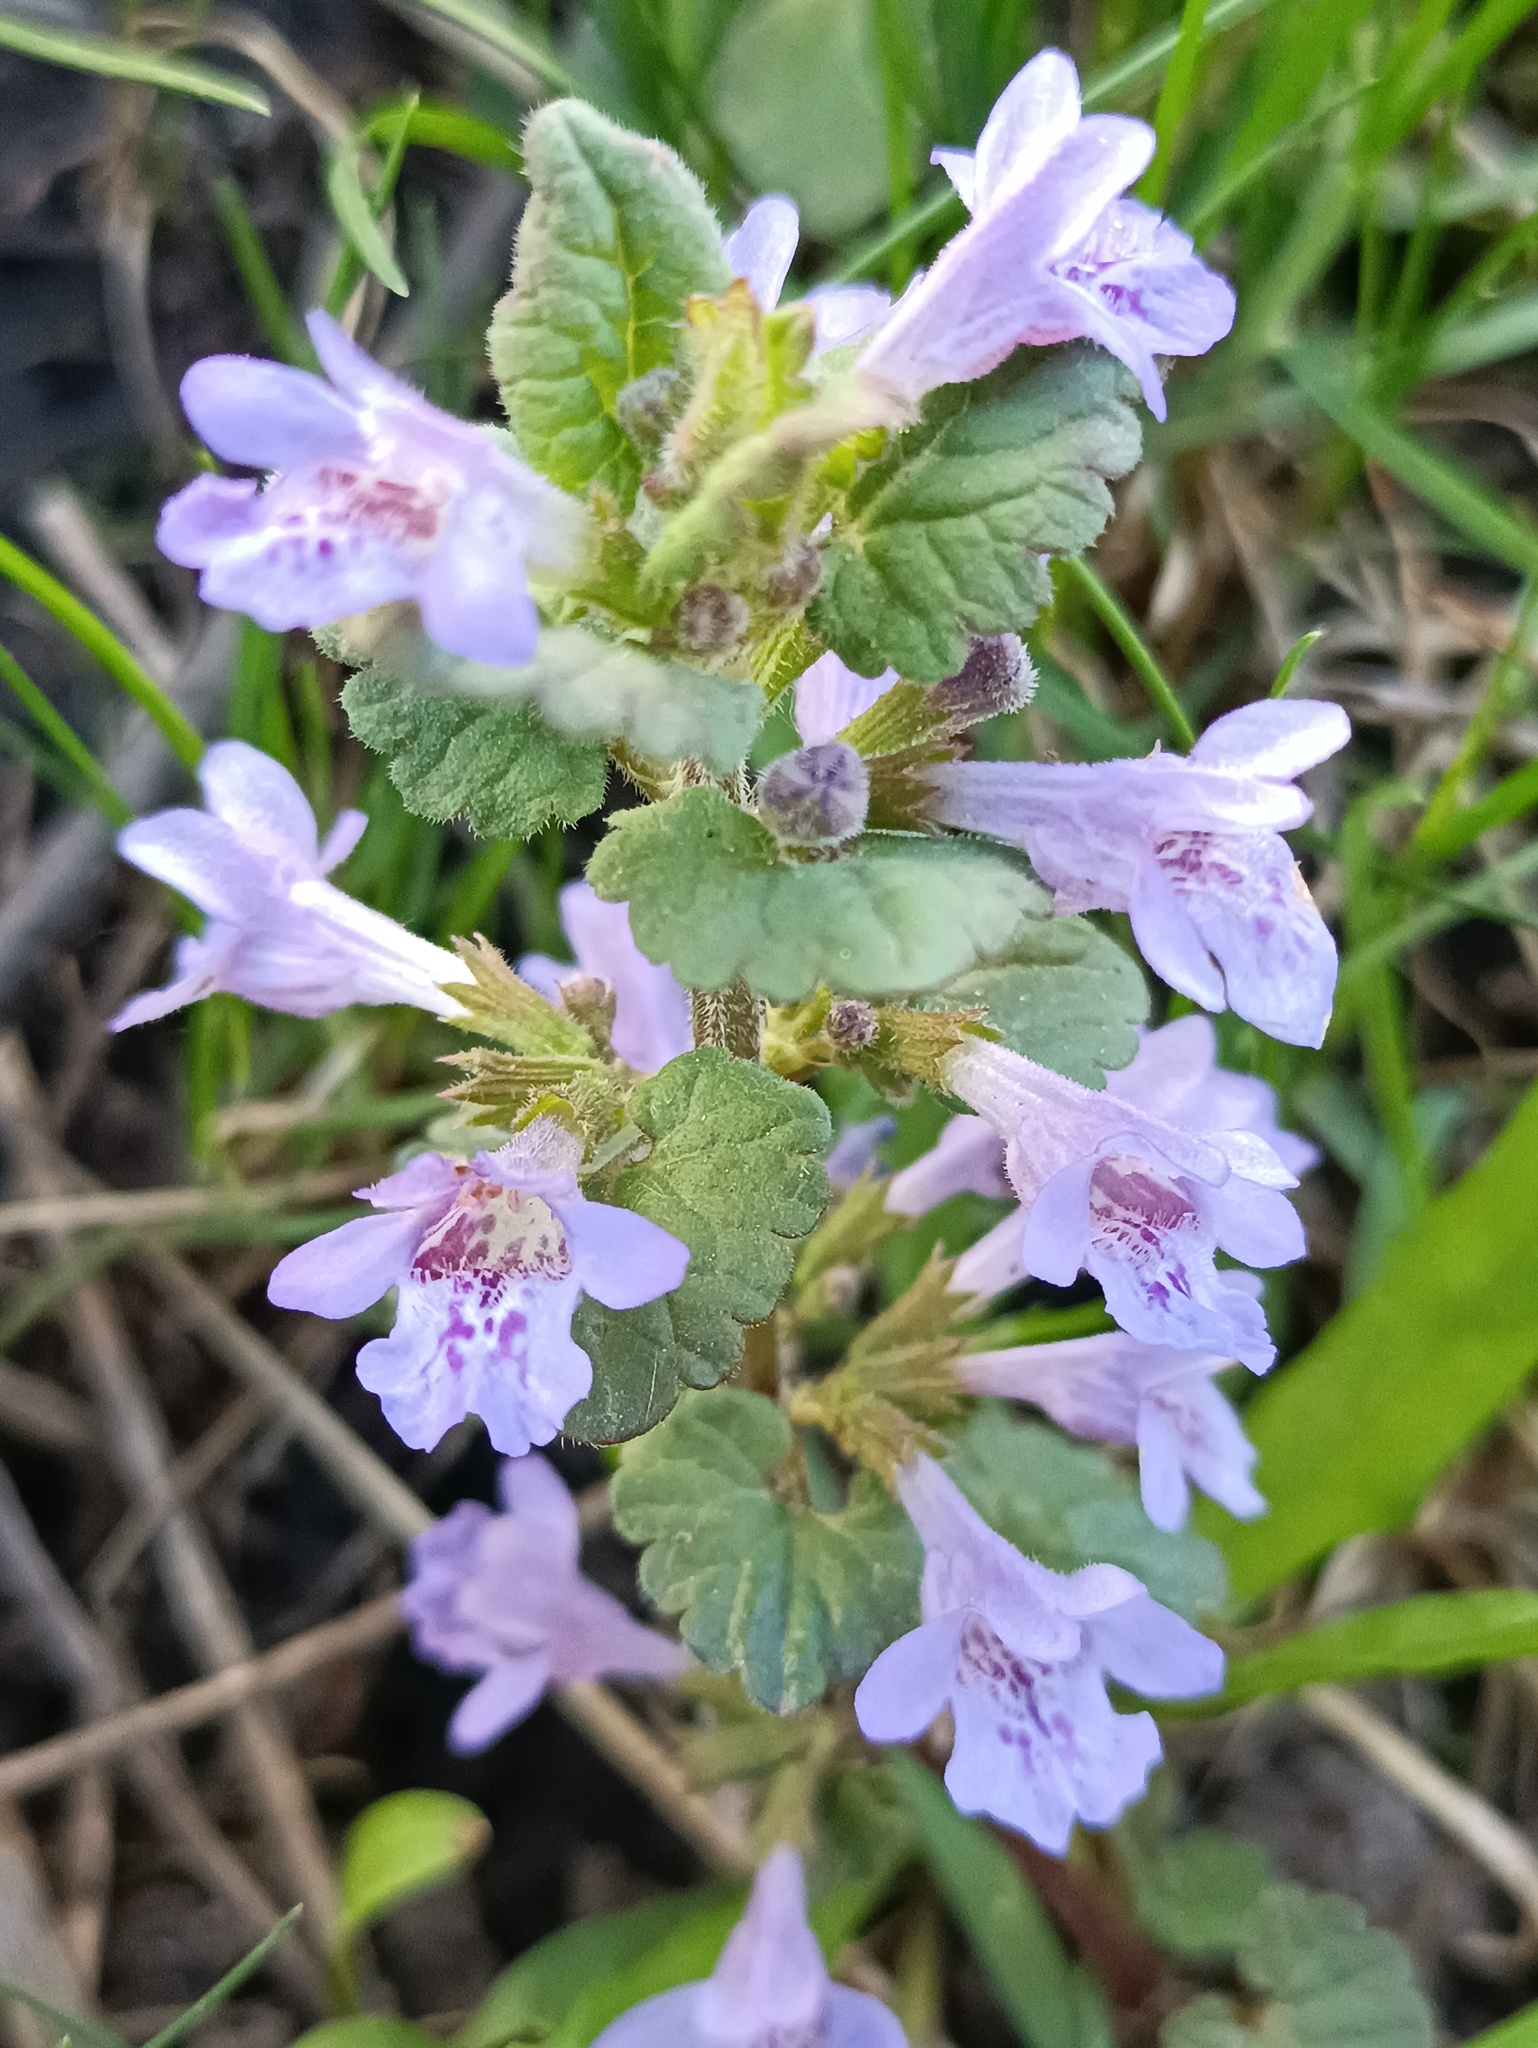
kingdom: Plantae
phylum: Tracheophyta
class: Magnoliopsida
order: Lamiales
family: Lamiaceae
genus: Glechoma
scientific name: Glechoma hederacea
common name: Ground ivy
